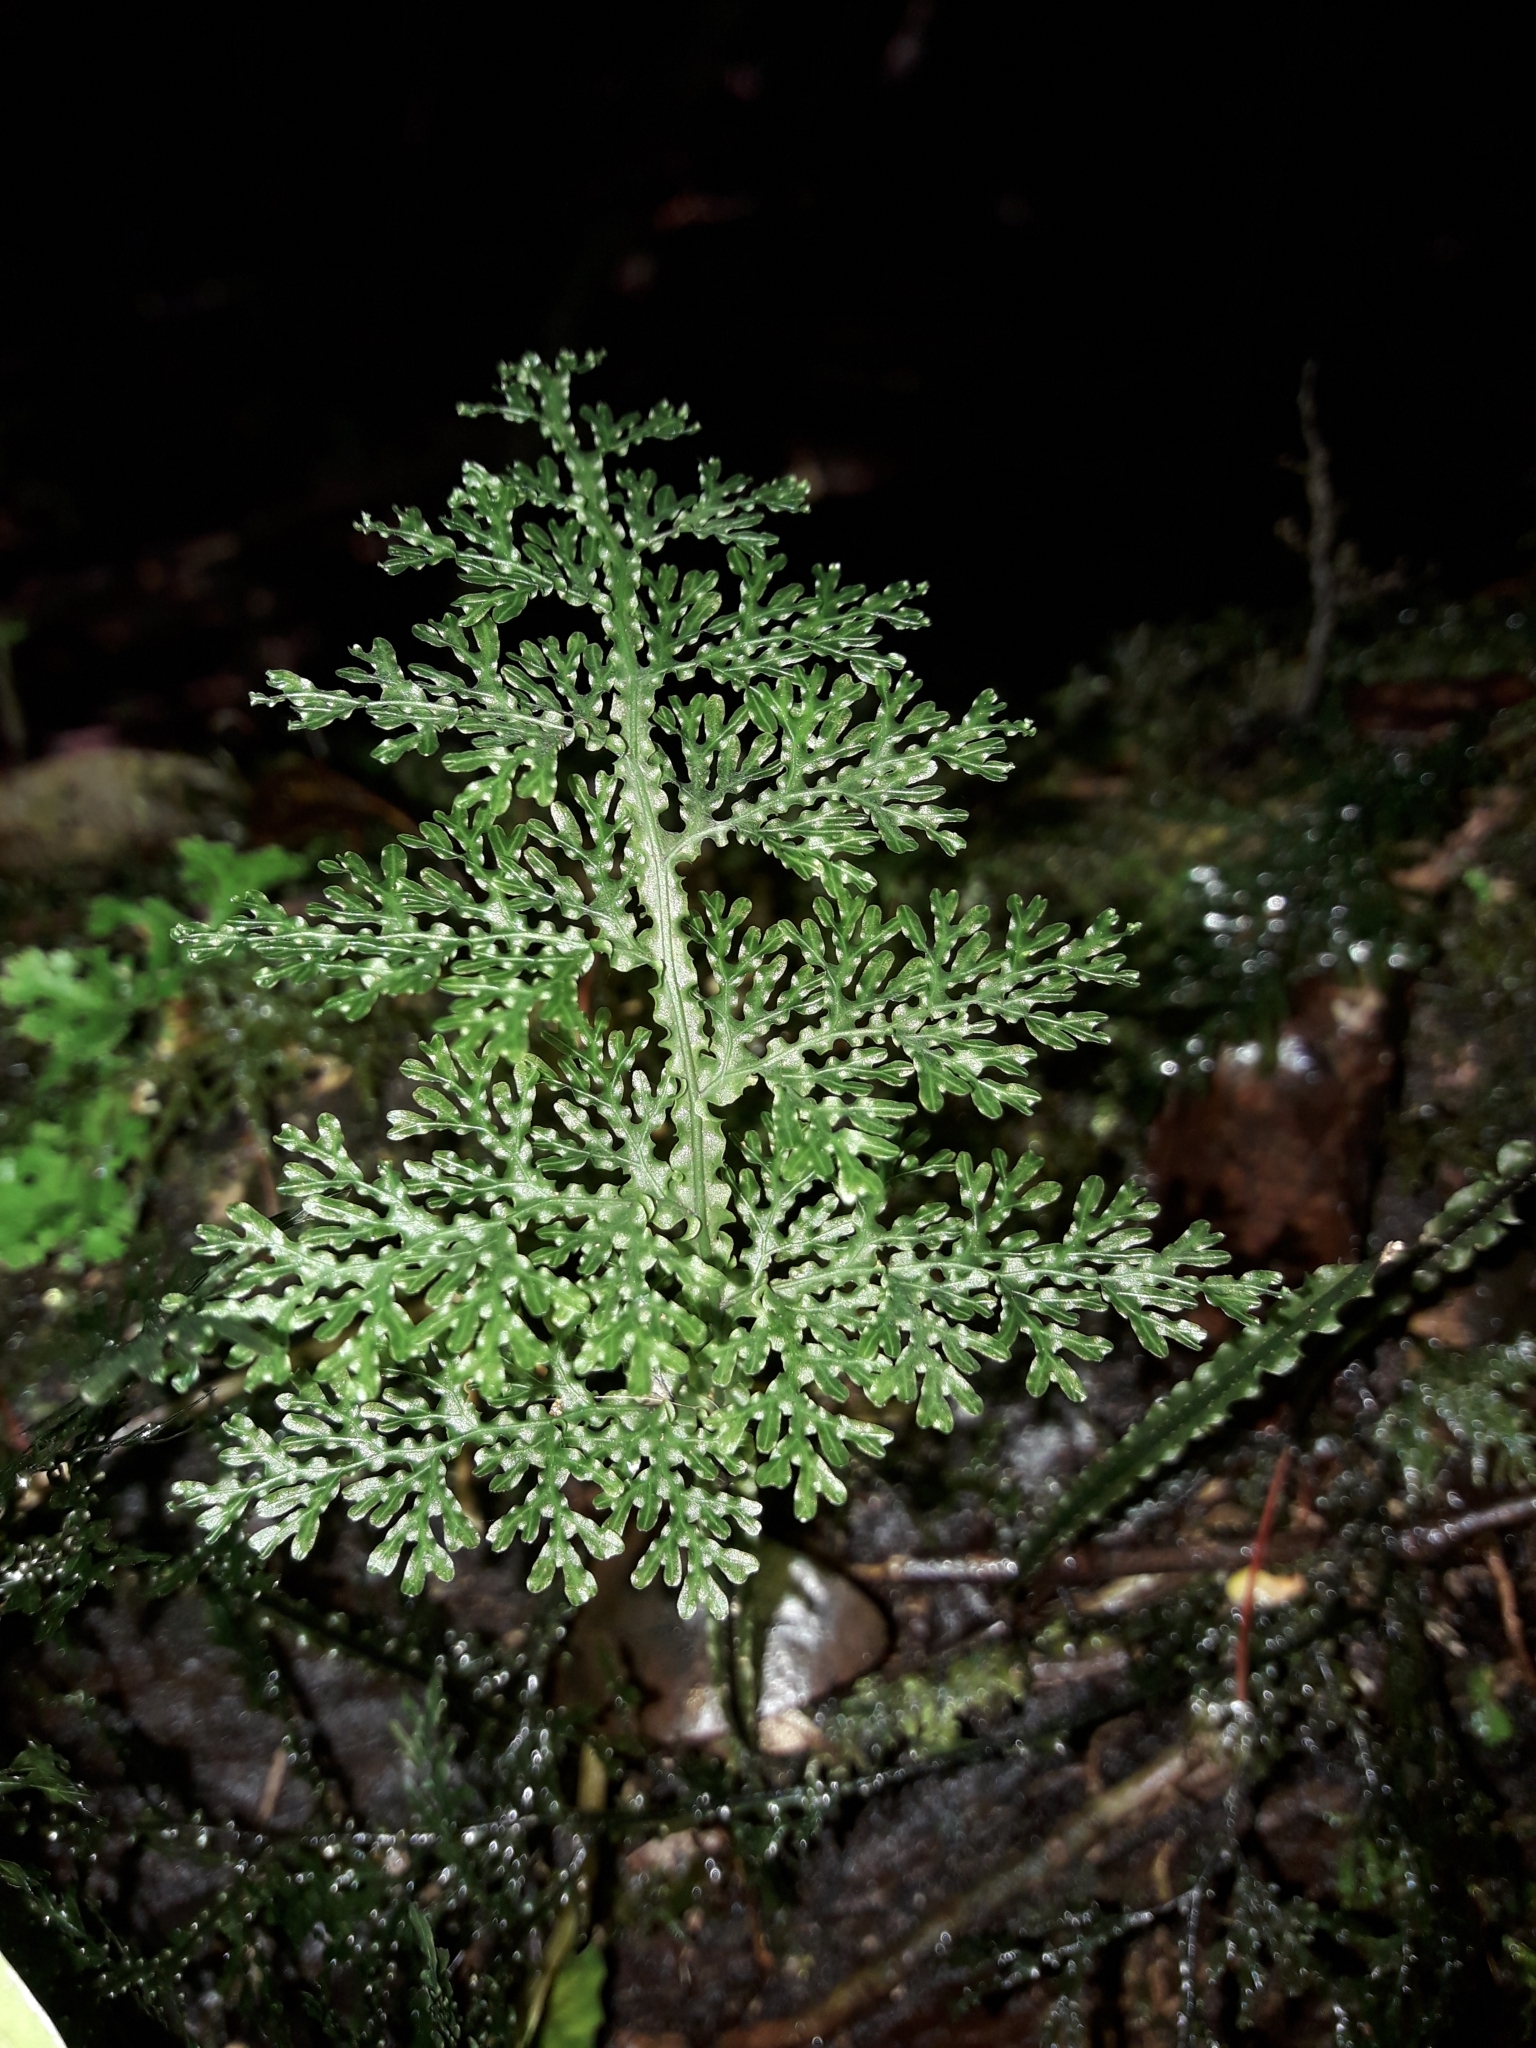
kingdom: Plantae
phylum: Tracheophyta
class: Polypodiopsida
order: Hymenophyllales
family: Hymenophyllaceae
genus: Hymenophyllum
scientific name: Hymenophyllum flexuosum
